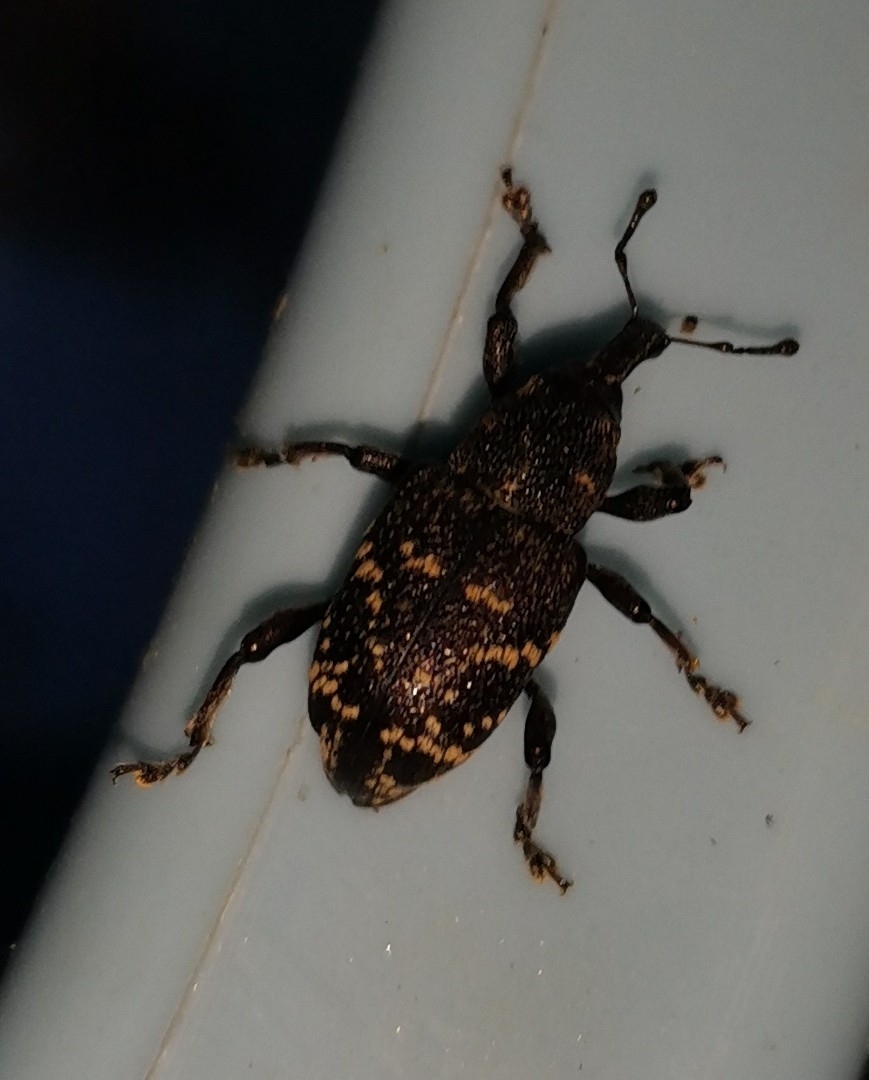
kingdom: Animalia
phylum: Arthropoda
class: Insecta
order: Coleoptera
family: Curculionidae
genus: Hylobius
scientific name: Hylobius abietis
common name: Large pine weevil
